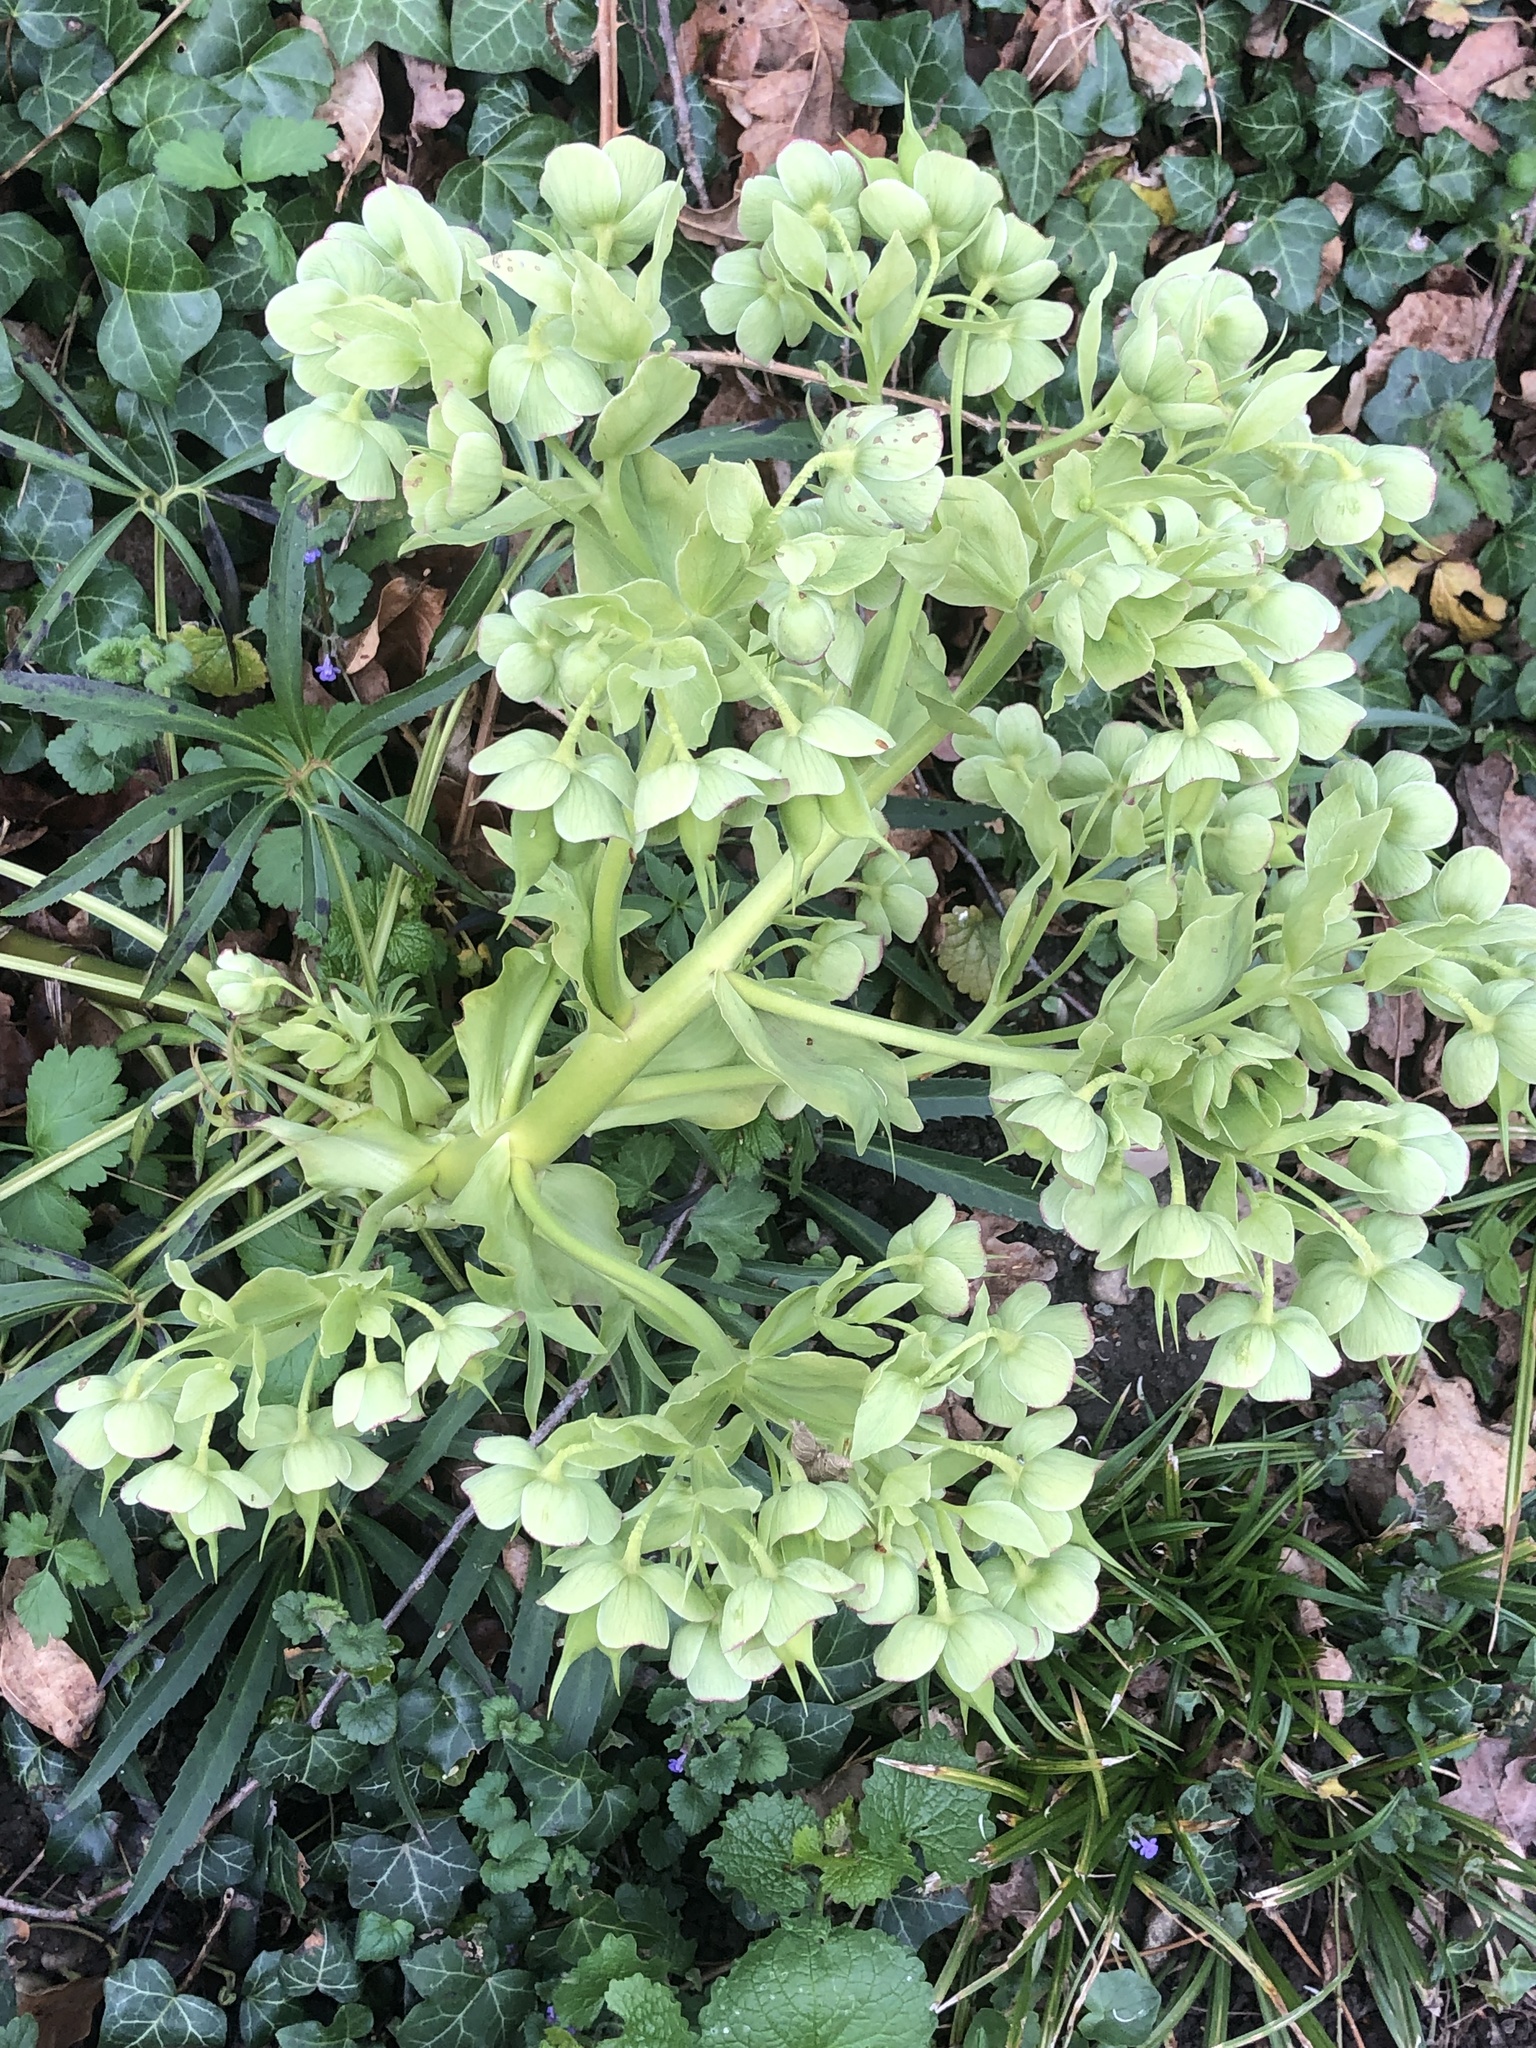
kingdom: Plantae
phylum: Tracheophyta
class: Magnoliopsida
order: Ranunculales
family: Ranunculaceae
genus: Helleborus
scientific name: Helleborus foetidus
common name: Stinking hellebore
